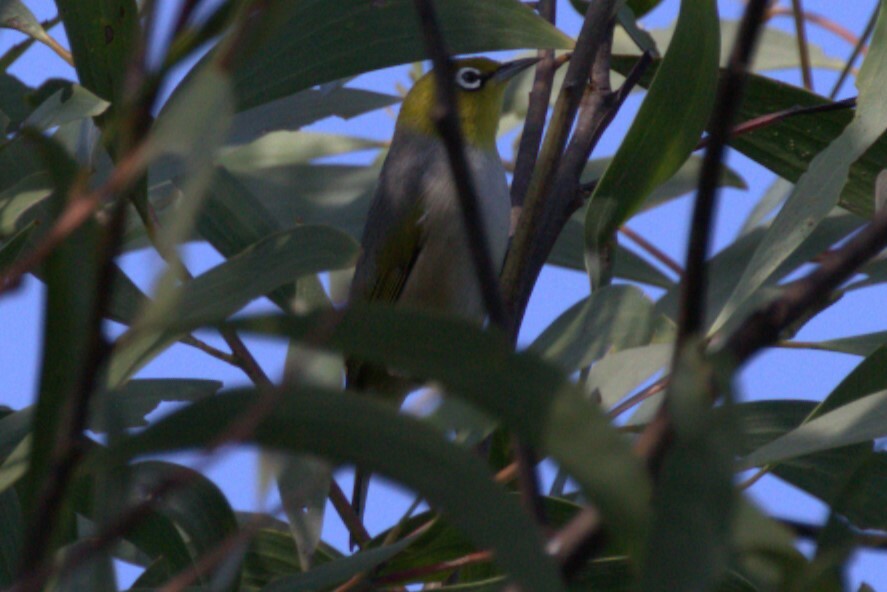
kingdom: Animalia
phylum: Chordata
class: Aves
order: Passeriformes
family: Zosteropidae
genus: Zosterops
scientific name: Zosterops lateralis
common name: Silvereye
